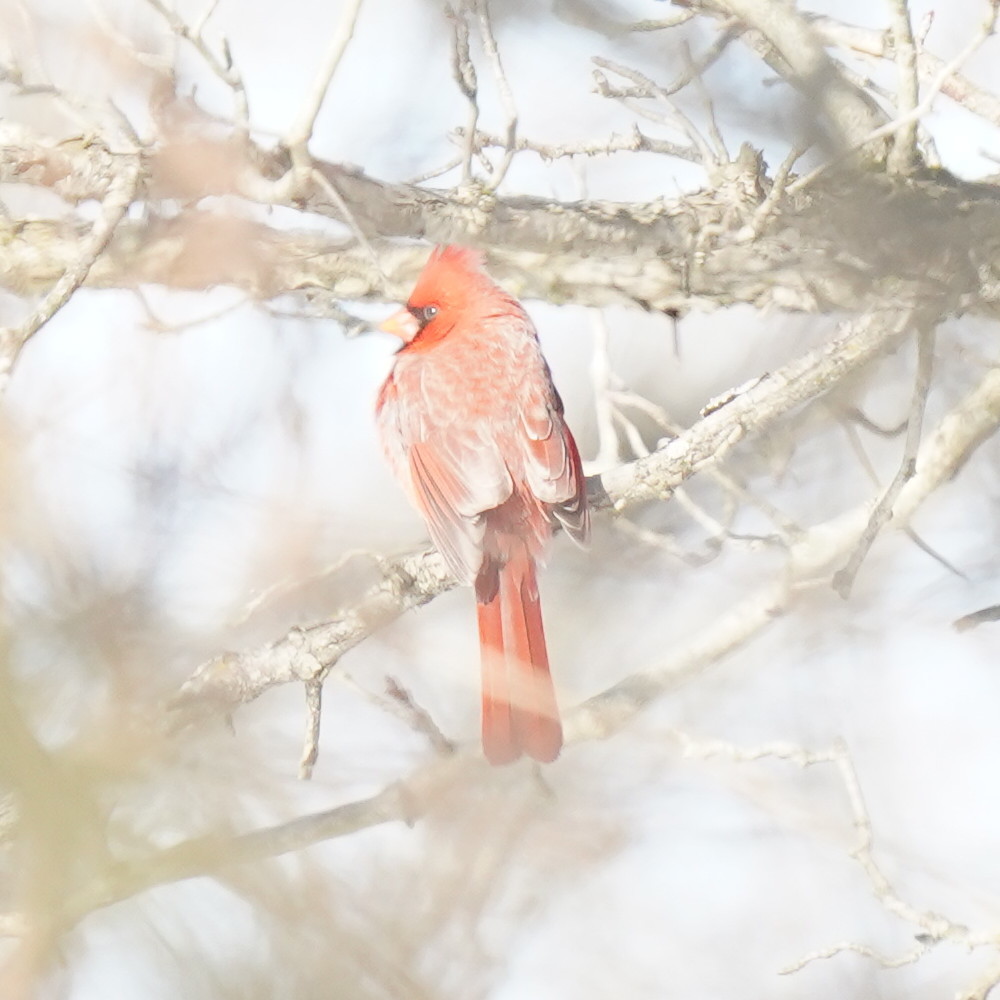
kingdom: Animalia
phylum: Chordata
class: Aves
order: Passeriformes
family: Cardinalidae
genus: Cardinalis
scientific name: Cardinalis cardinalis
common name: Northern cardinal
